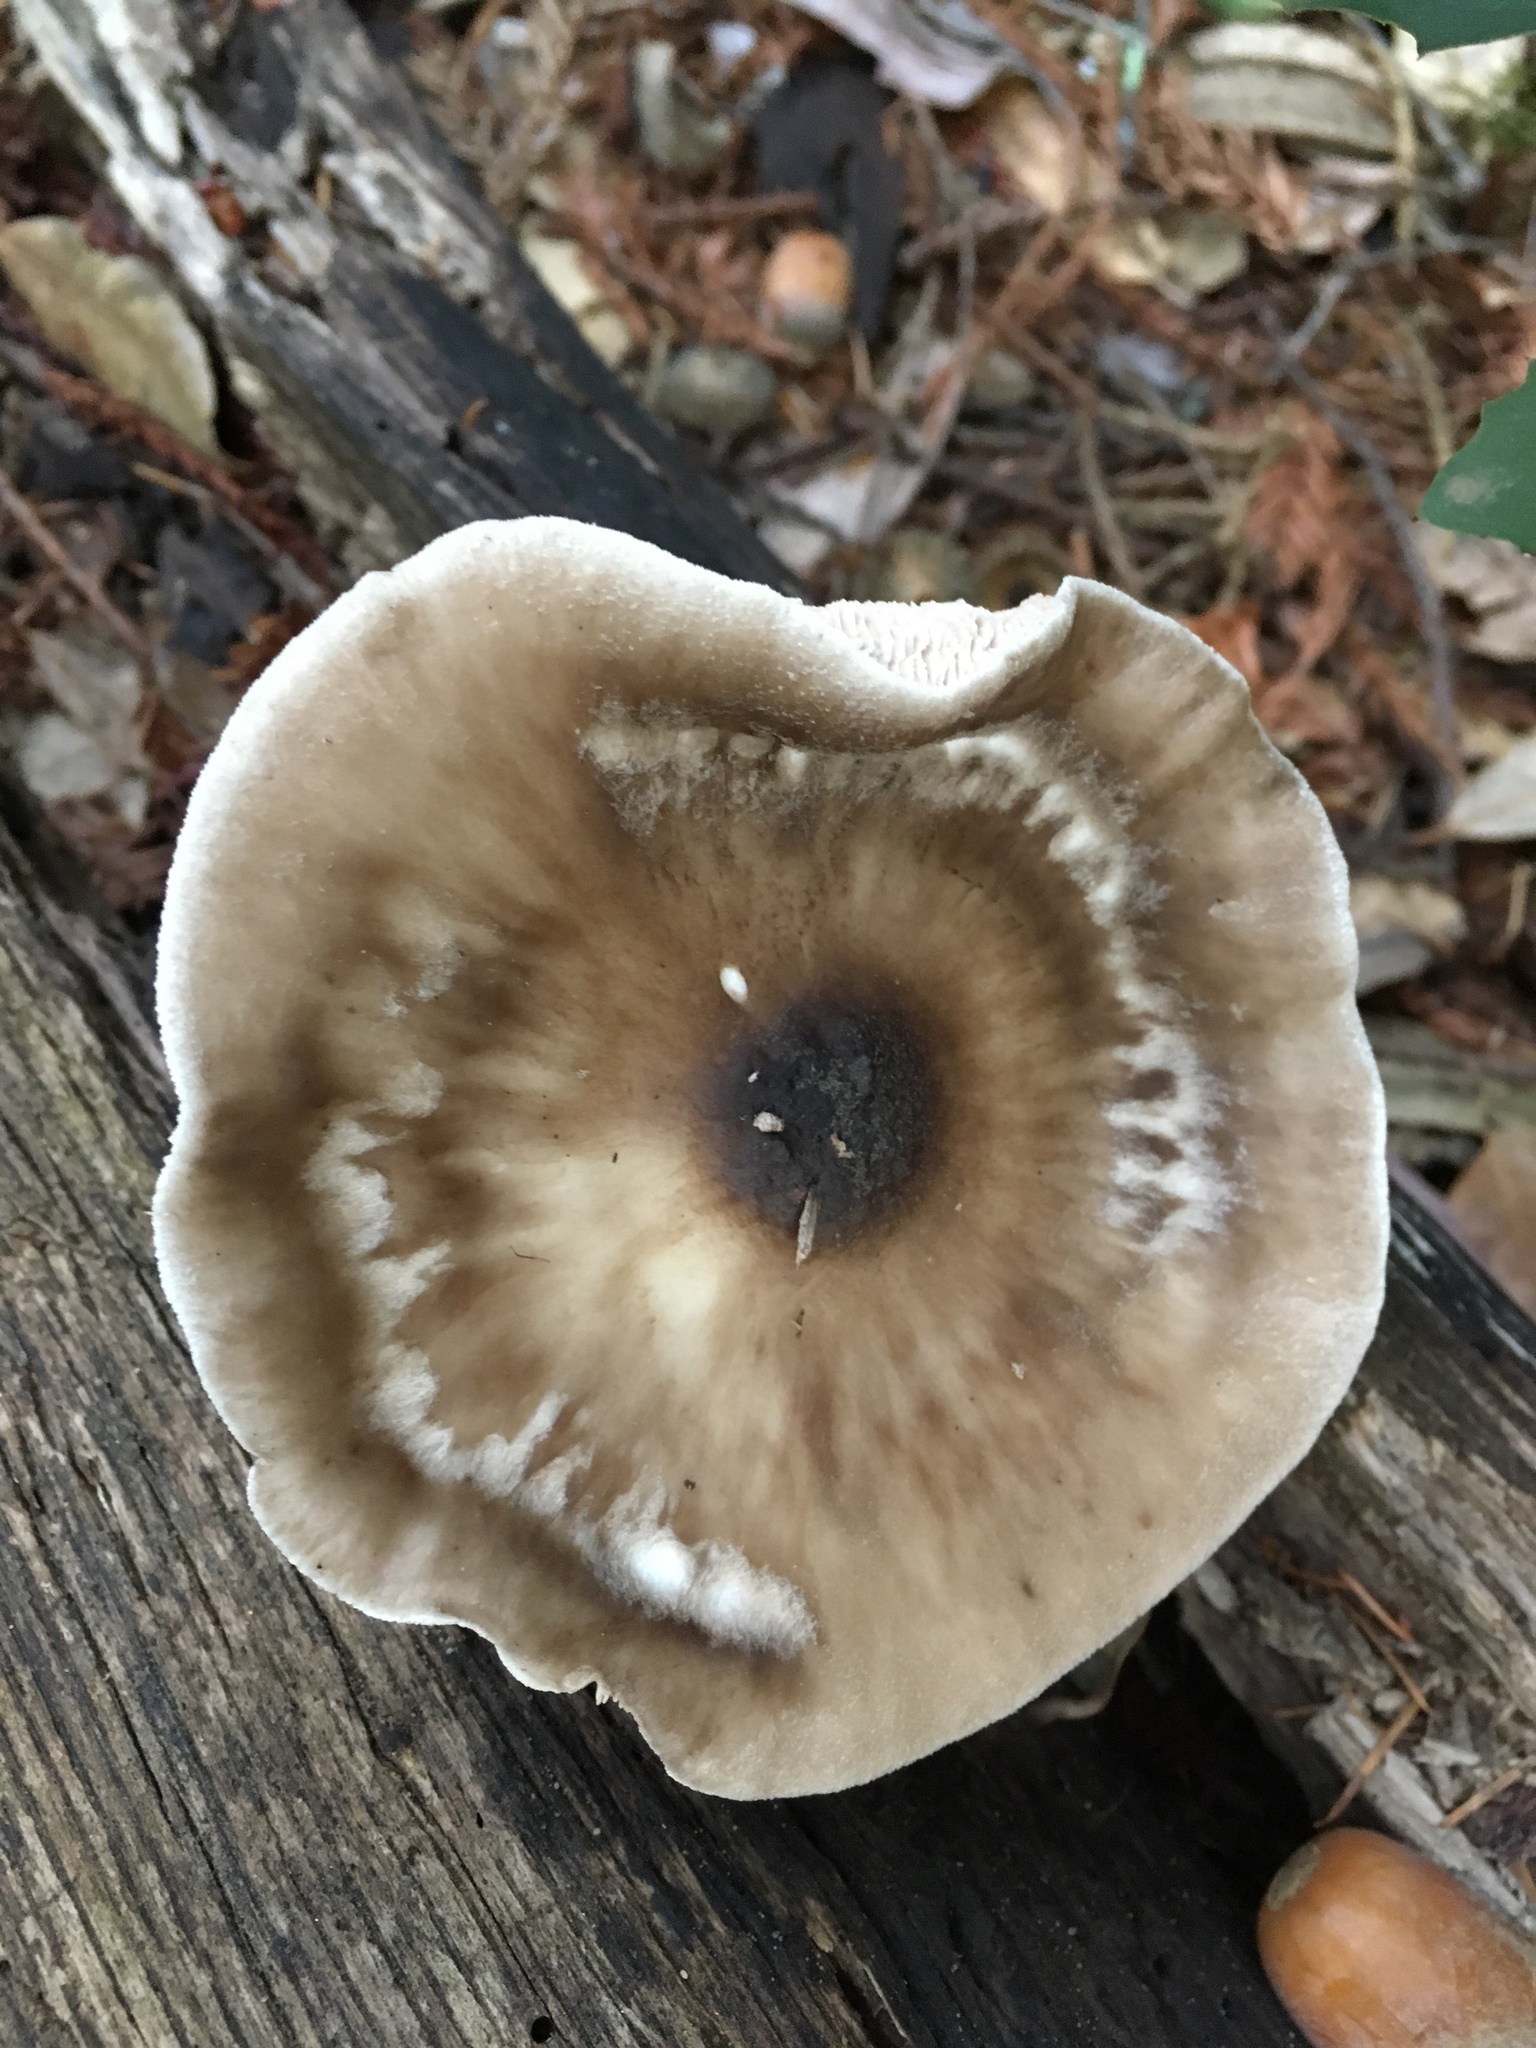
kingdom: Fungi
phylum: Basidiomycota
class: Agaricomycetes
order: Agaricales
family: Pluteaceae
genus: Pluteus
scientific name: Pluteus cervinus
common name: Deer shield
